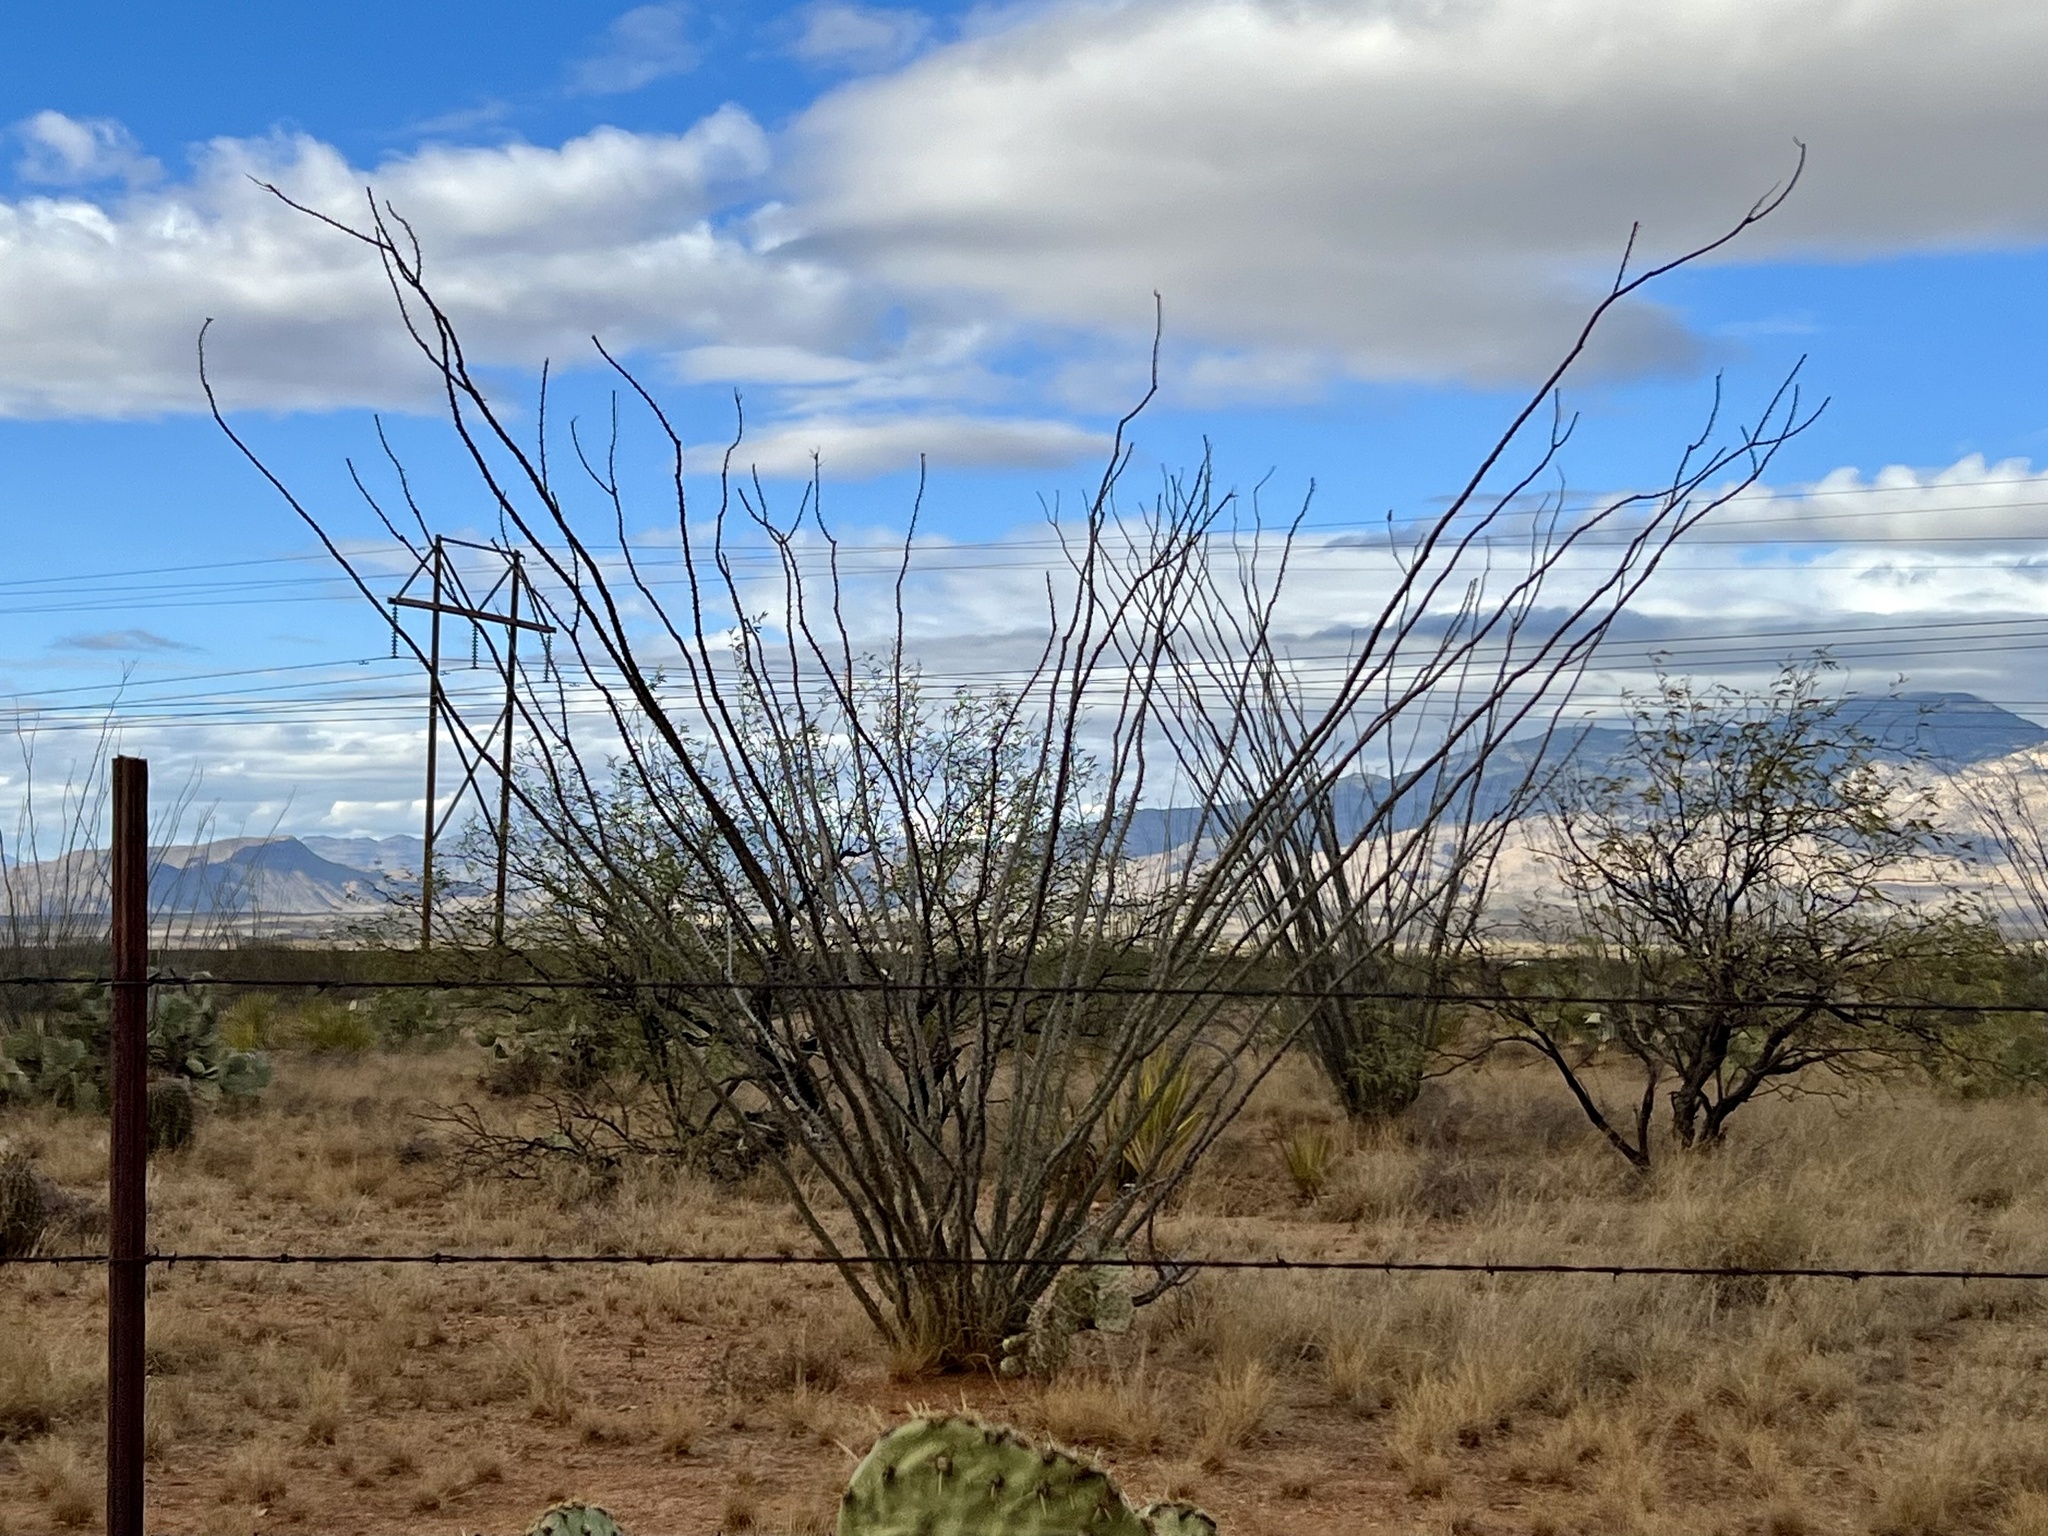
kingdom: Plantae
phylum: Tracheophyta
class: Magnoliopsida
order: Ericales
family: Fouquieriaceae
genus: Fouquieria
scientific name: Fouquieria splendens
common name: Vine-cactus
